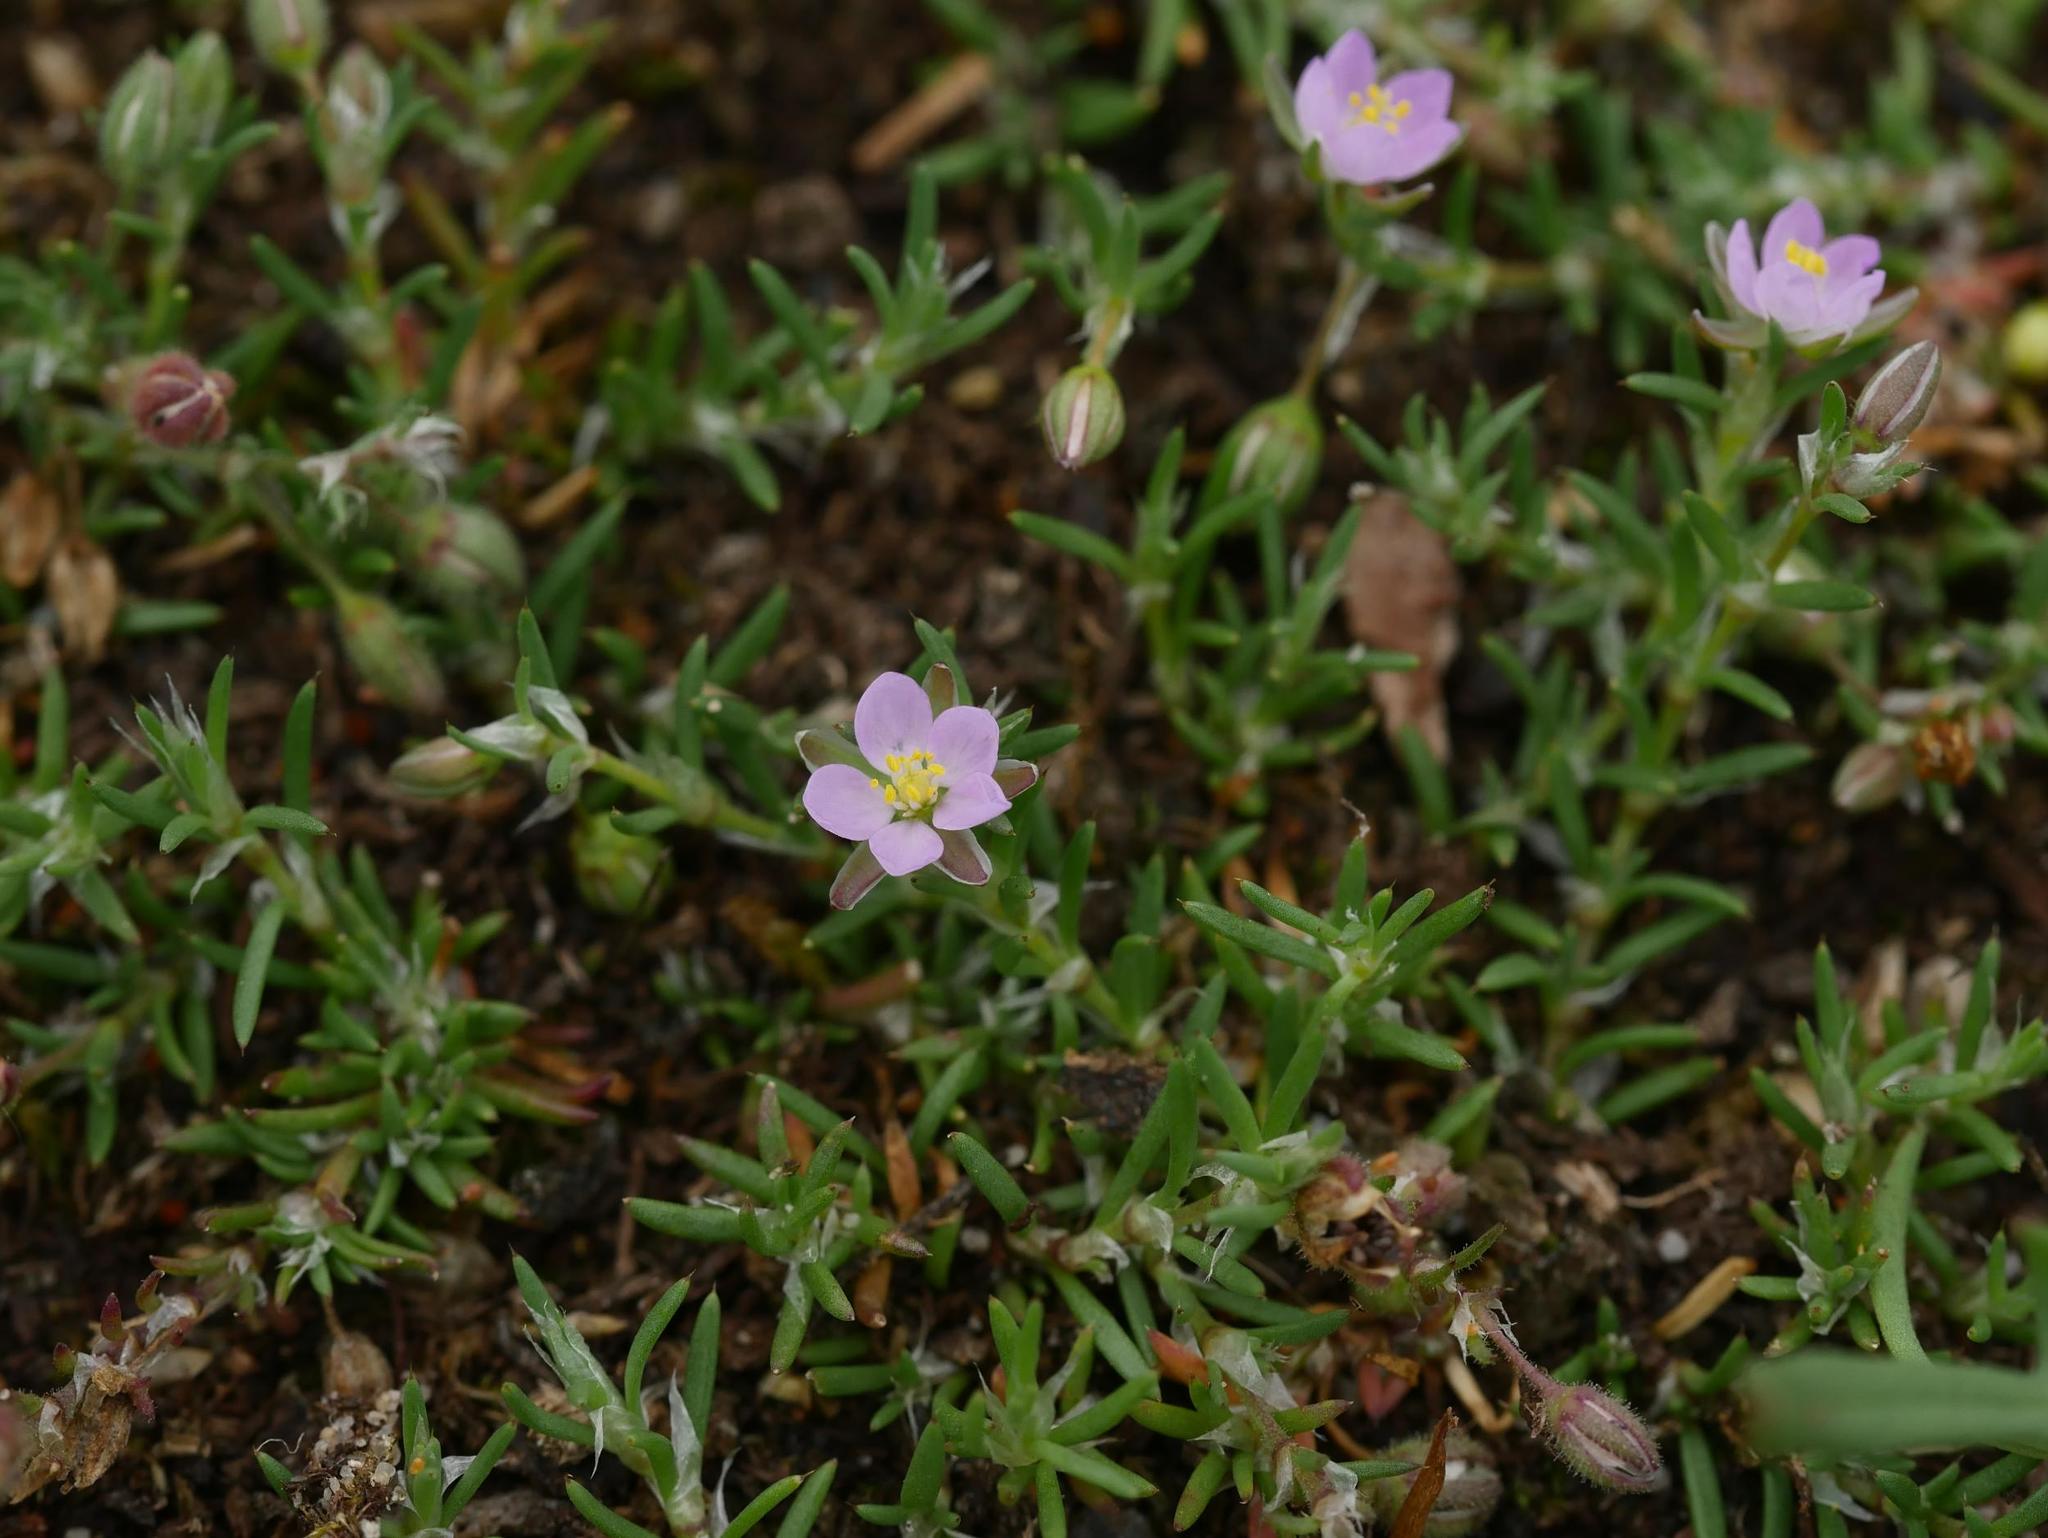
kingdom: Plantae
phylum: Tracheophyta
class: Magnoliopsida
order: Caryophyllales
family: Caryophyllaceae
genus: Spergularia
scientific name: Spergularia rubra
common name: Red sand-spurrey
